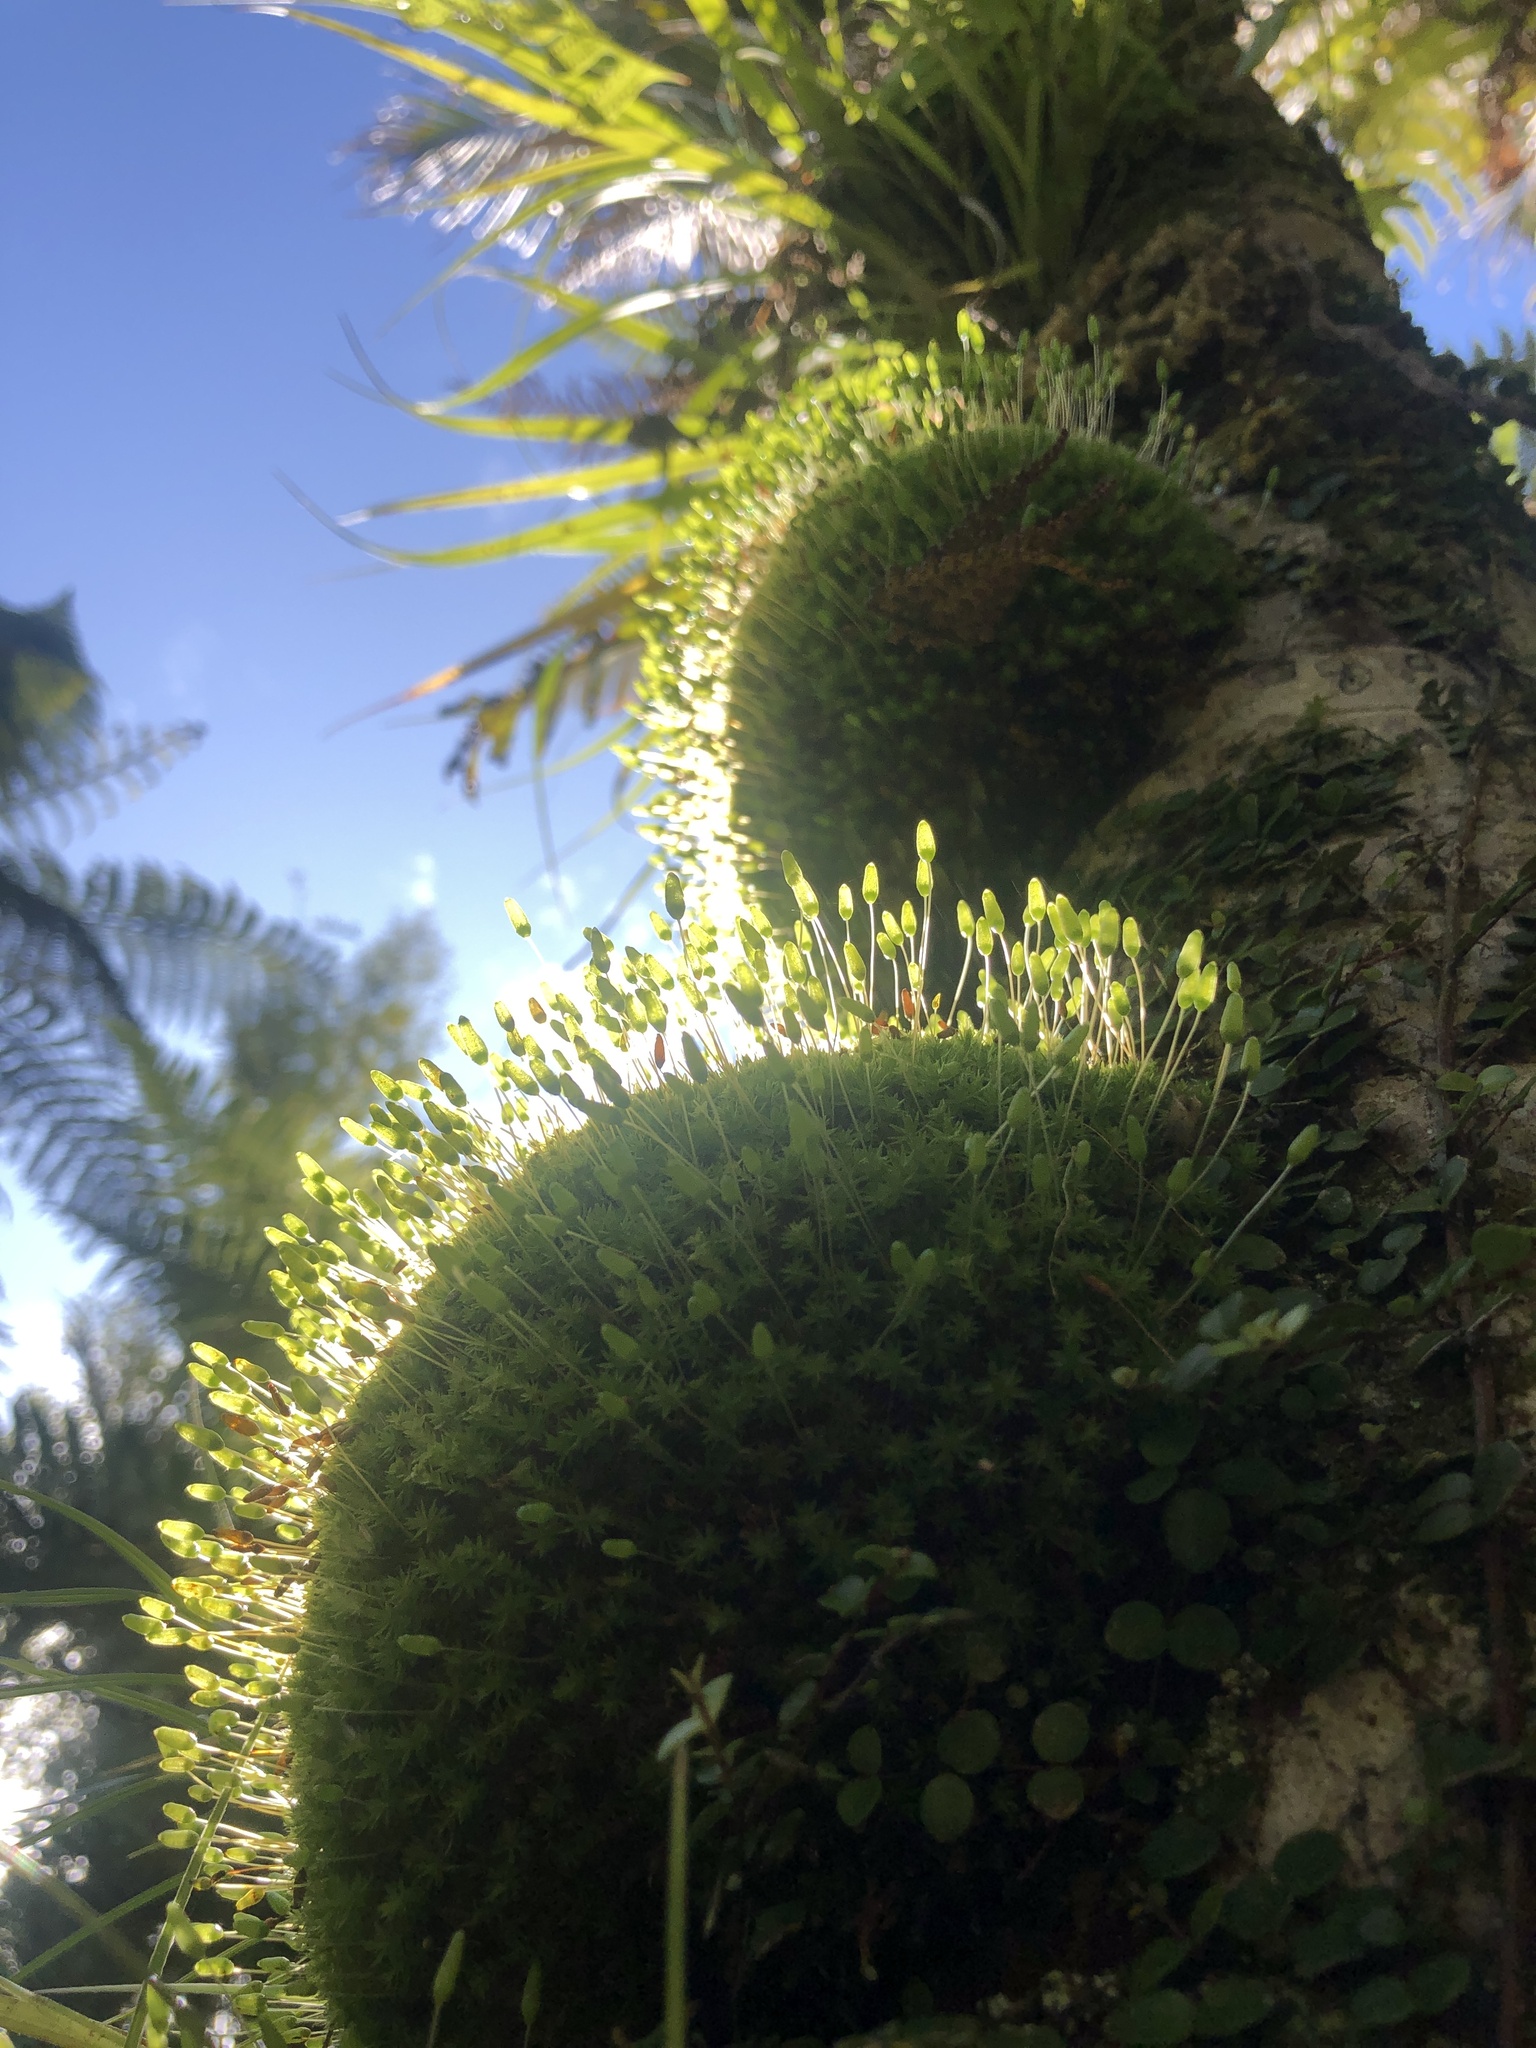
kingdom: Plantae
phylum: Bryophyta
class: Bryopsida
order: Bryales
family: Leptostomataceae
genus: Leptostomum
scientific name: Leptostomum macrocarpon
